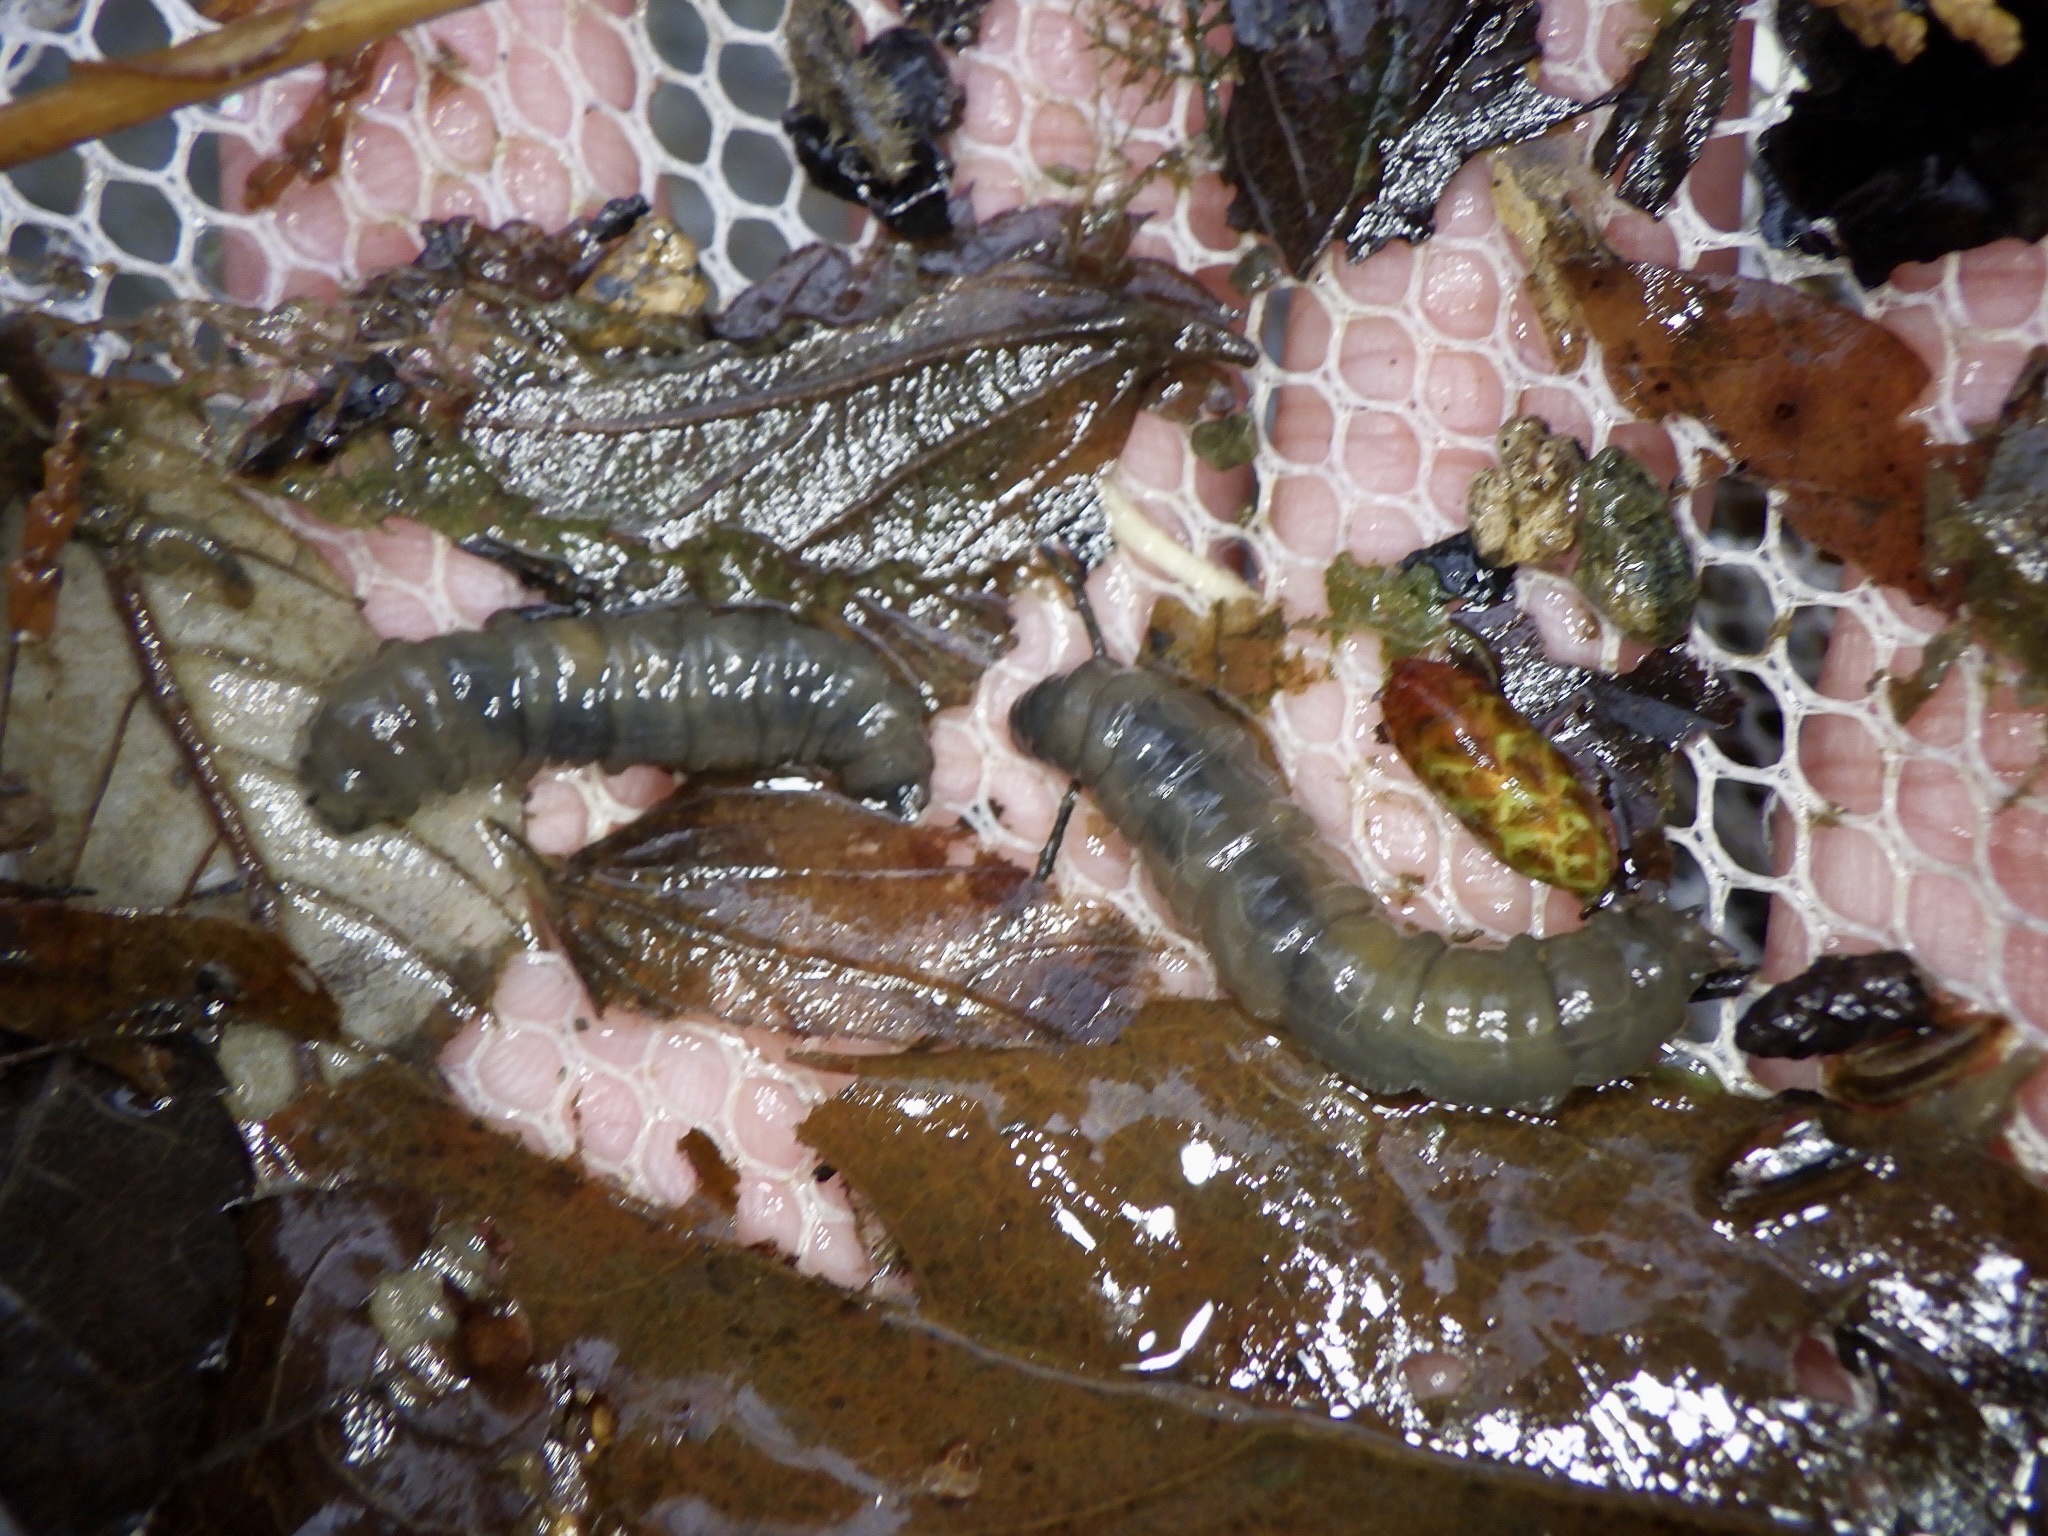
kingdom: Animalia
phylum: Arthropoda
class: Insecta
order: Diptera
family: Tipulidae
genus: Holorusia
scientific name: Holorusia mikado
